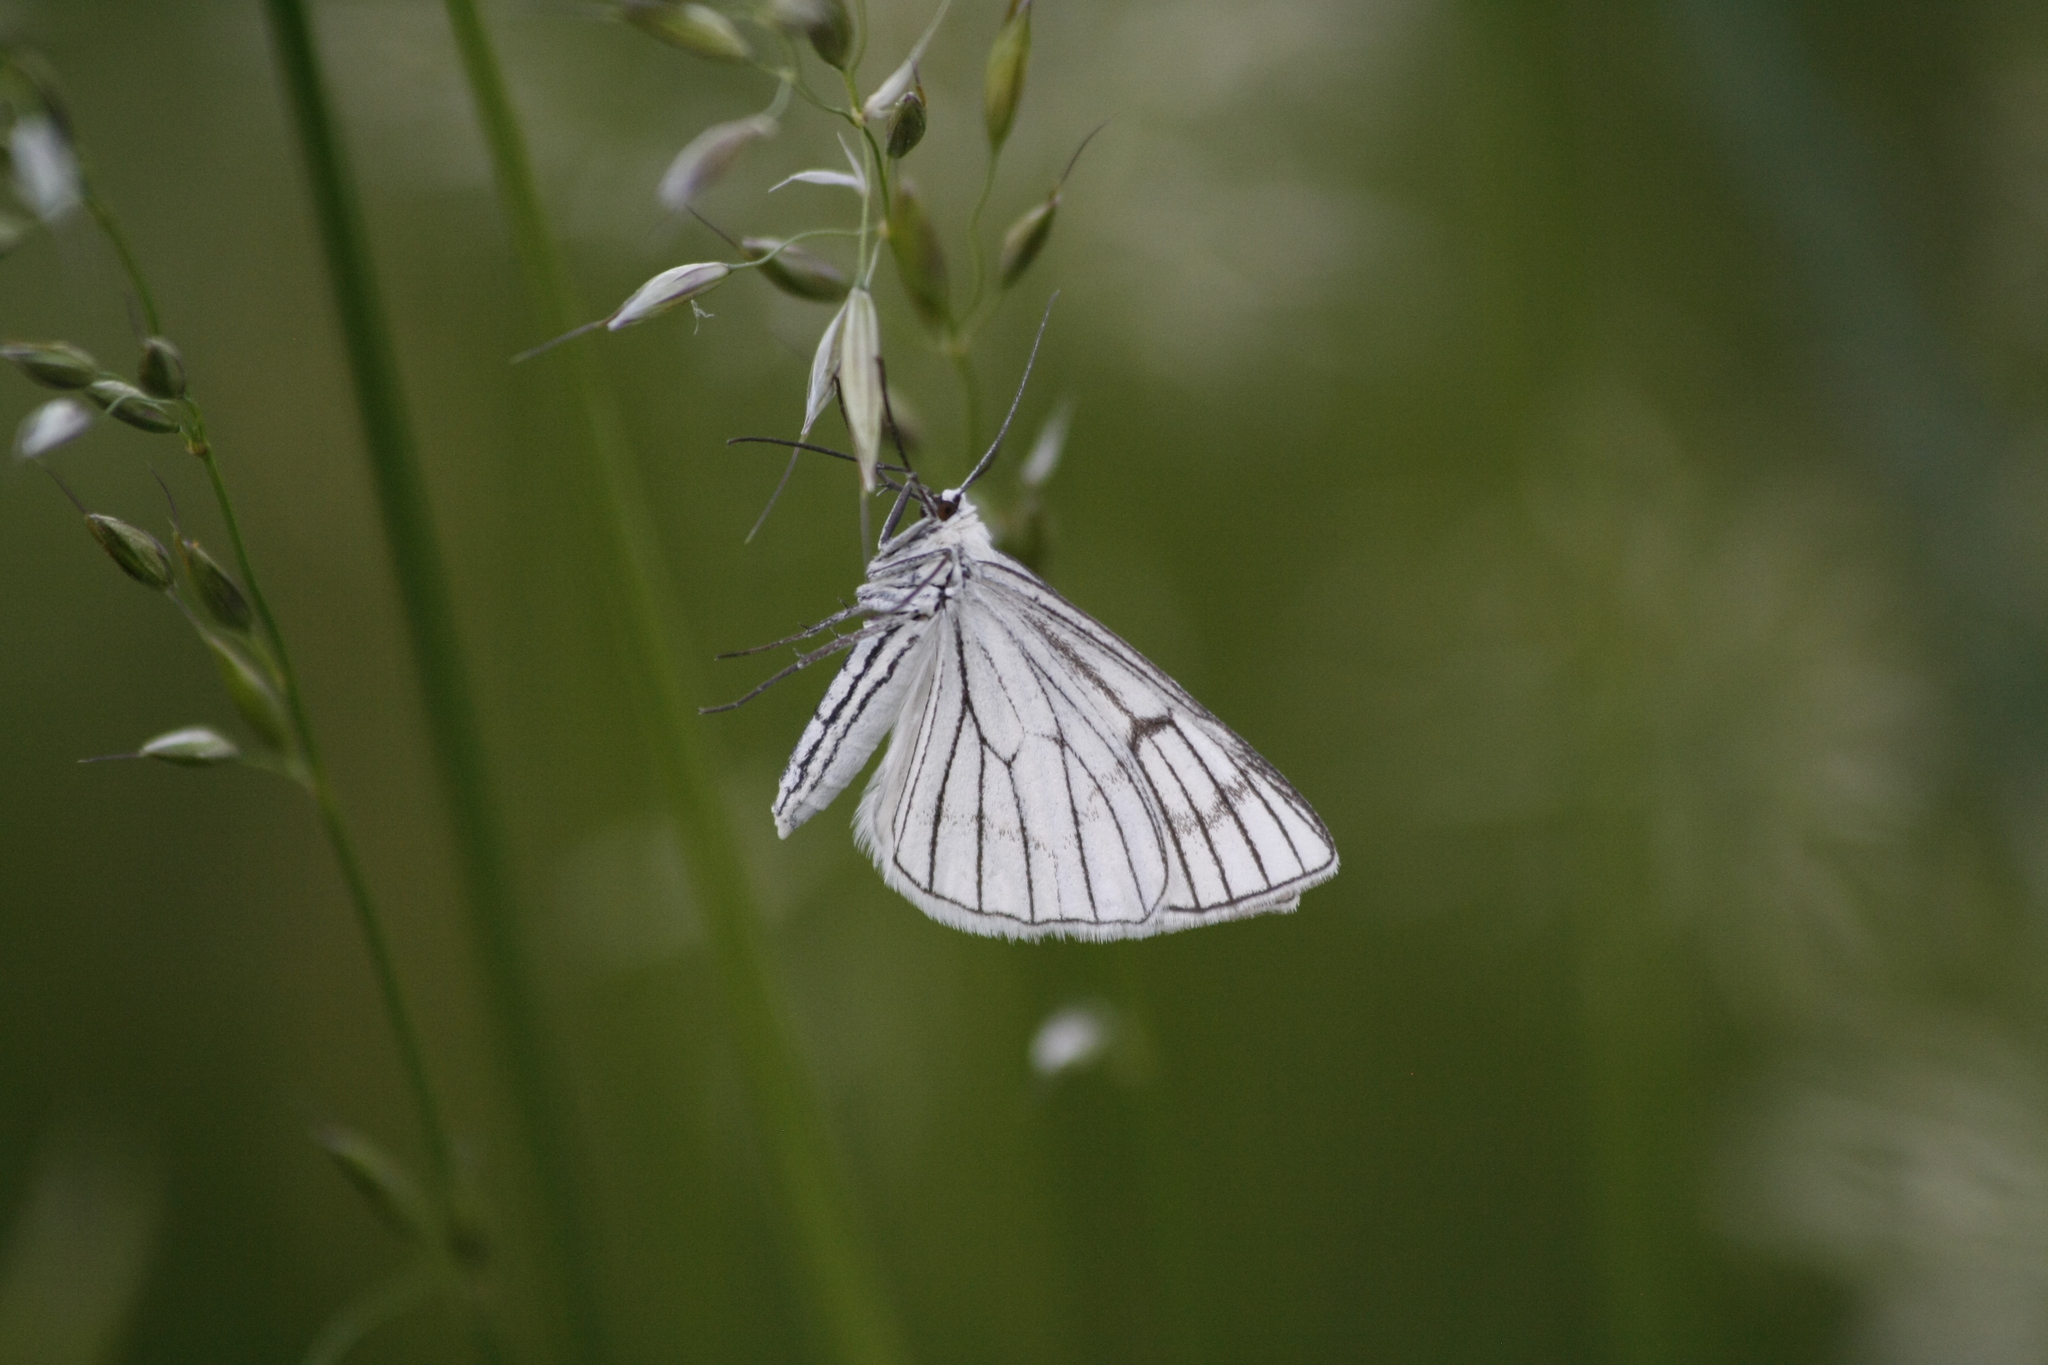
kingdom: Animalia
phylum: Arthropoda
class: Insecta
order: Lepidoptera
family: Geometridae
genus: Siona
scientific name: Siona lineata
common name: Black-veined moth
